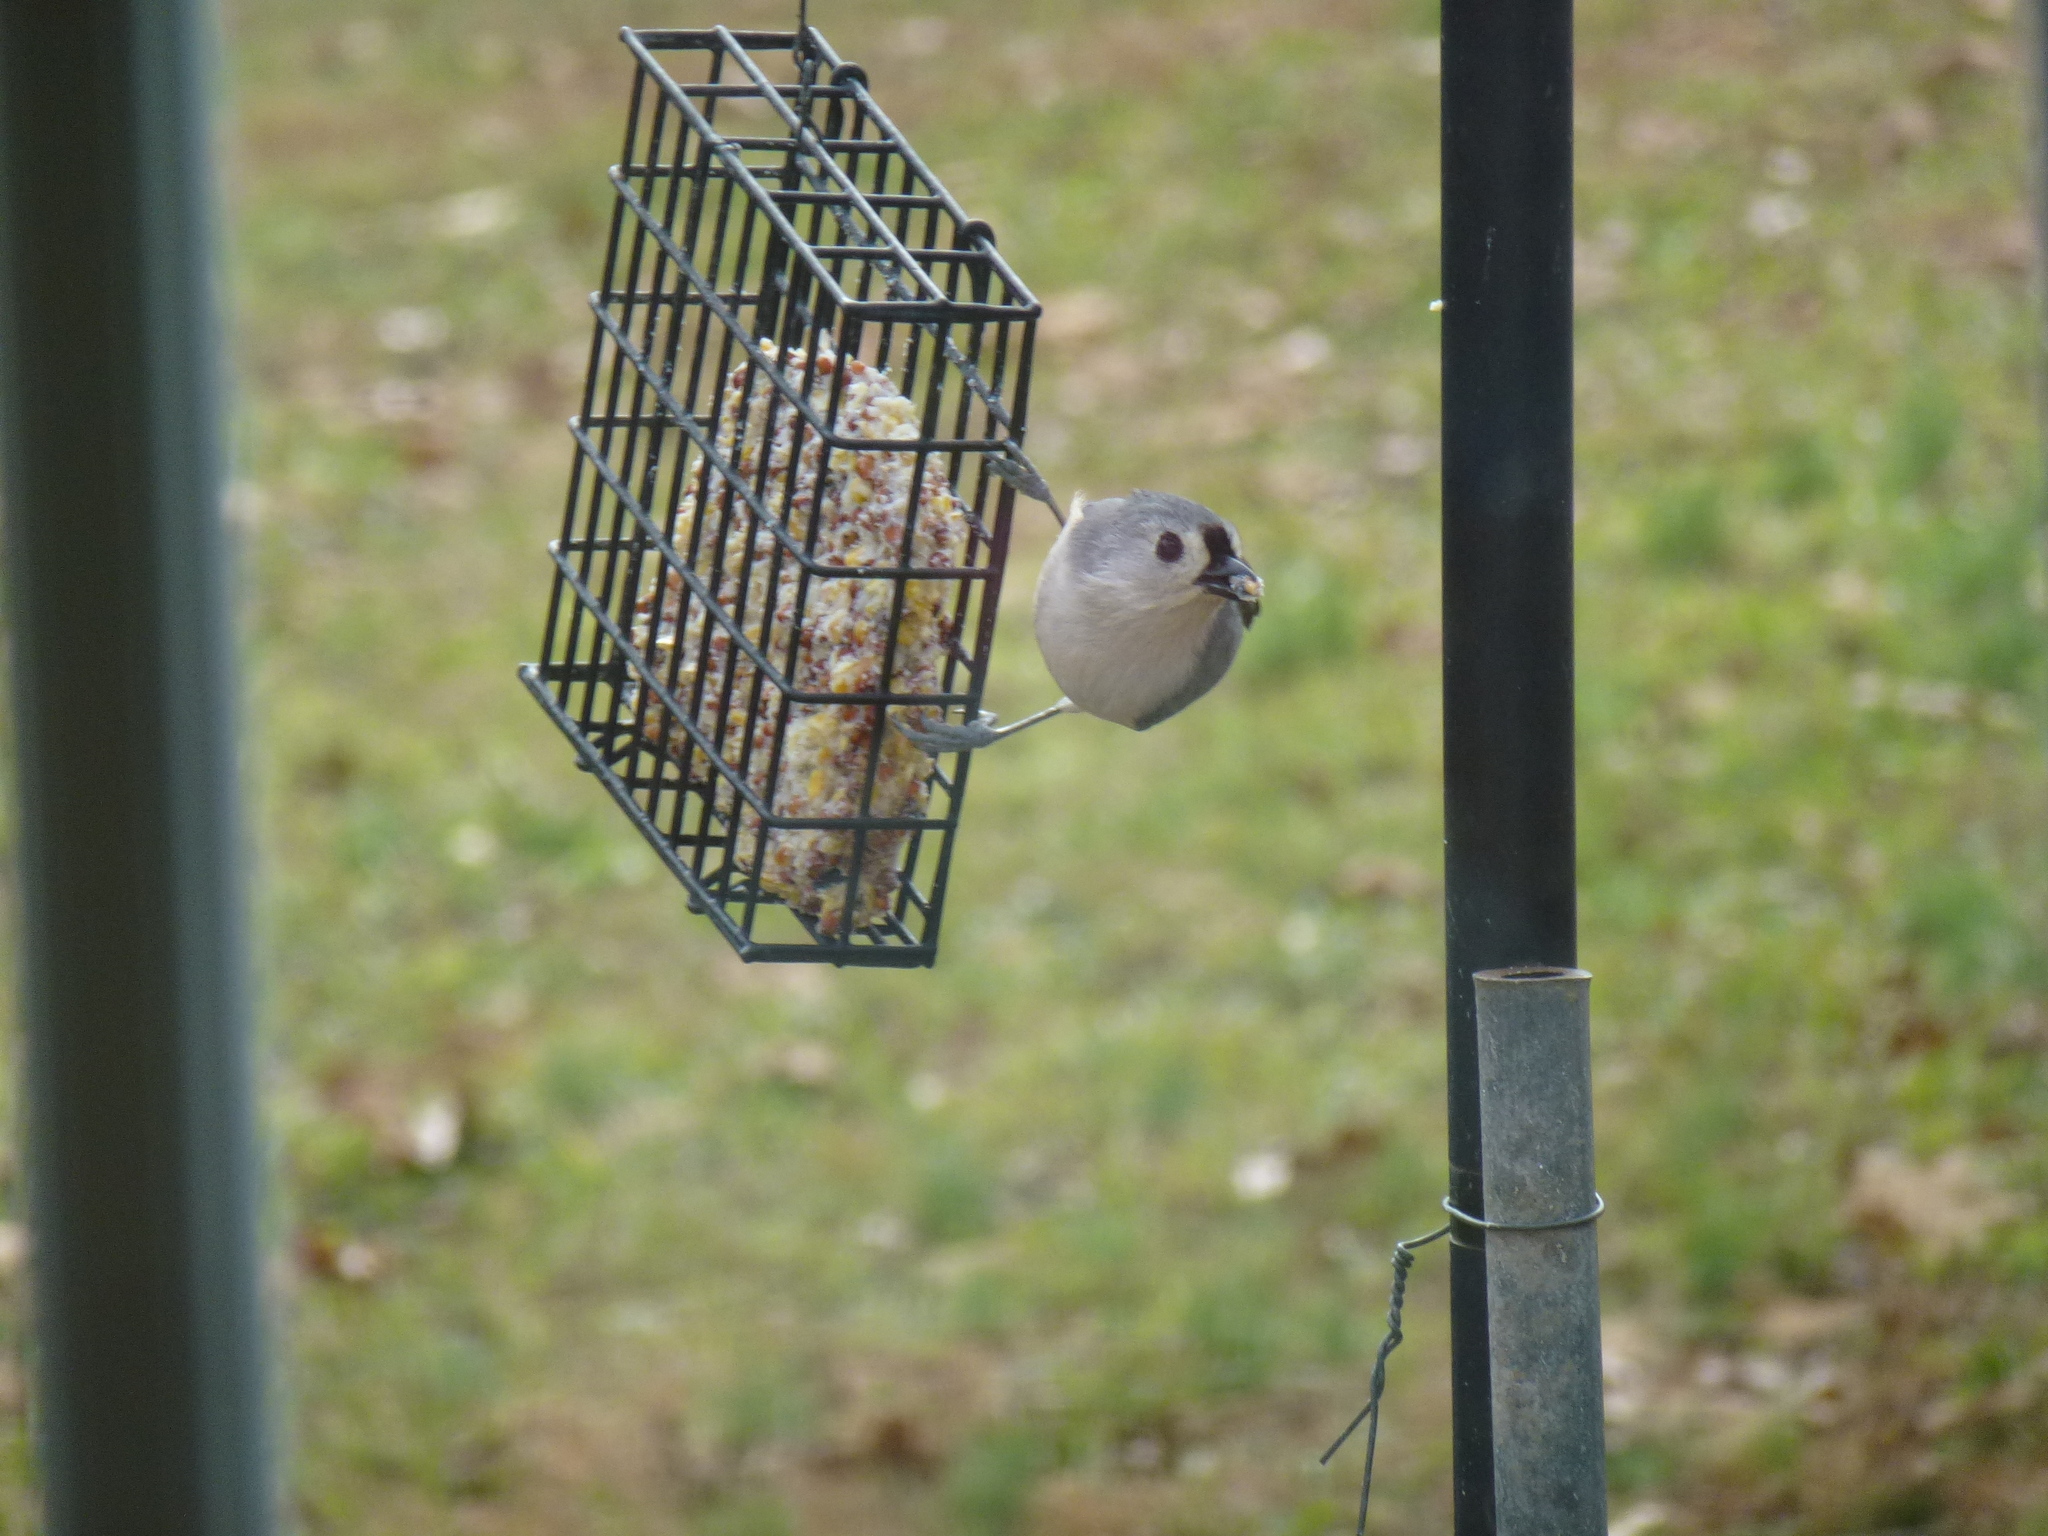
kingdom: Animalia
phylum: Chordata
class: Aves
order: Passeriformes
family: Paridae
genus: Baeolophus
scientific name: Baeolophus bicolor
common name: Tufted titmouse
